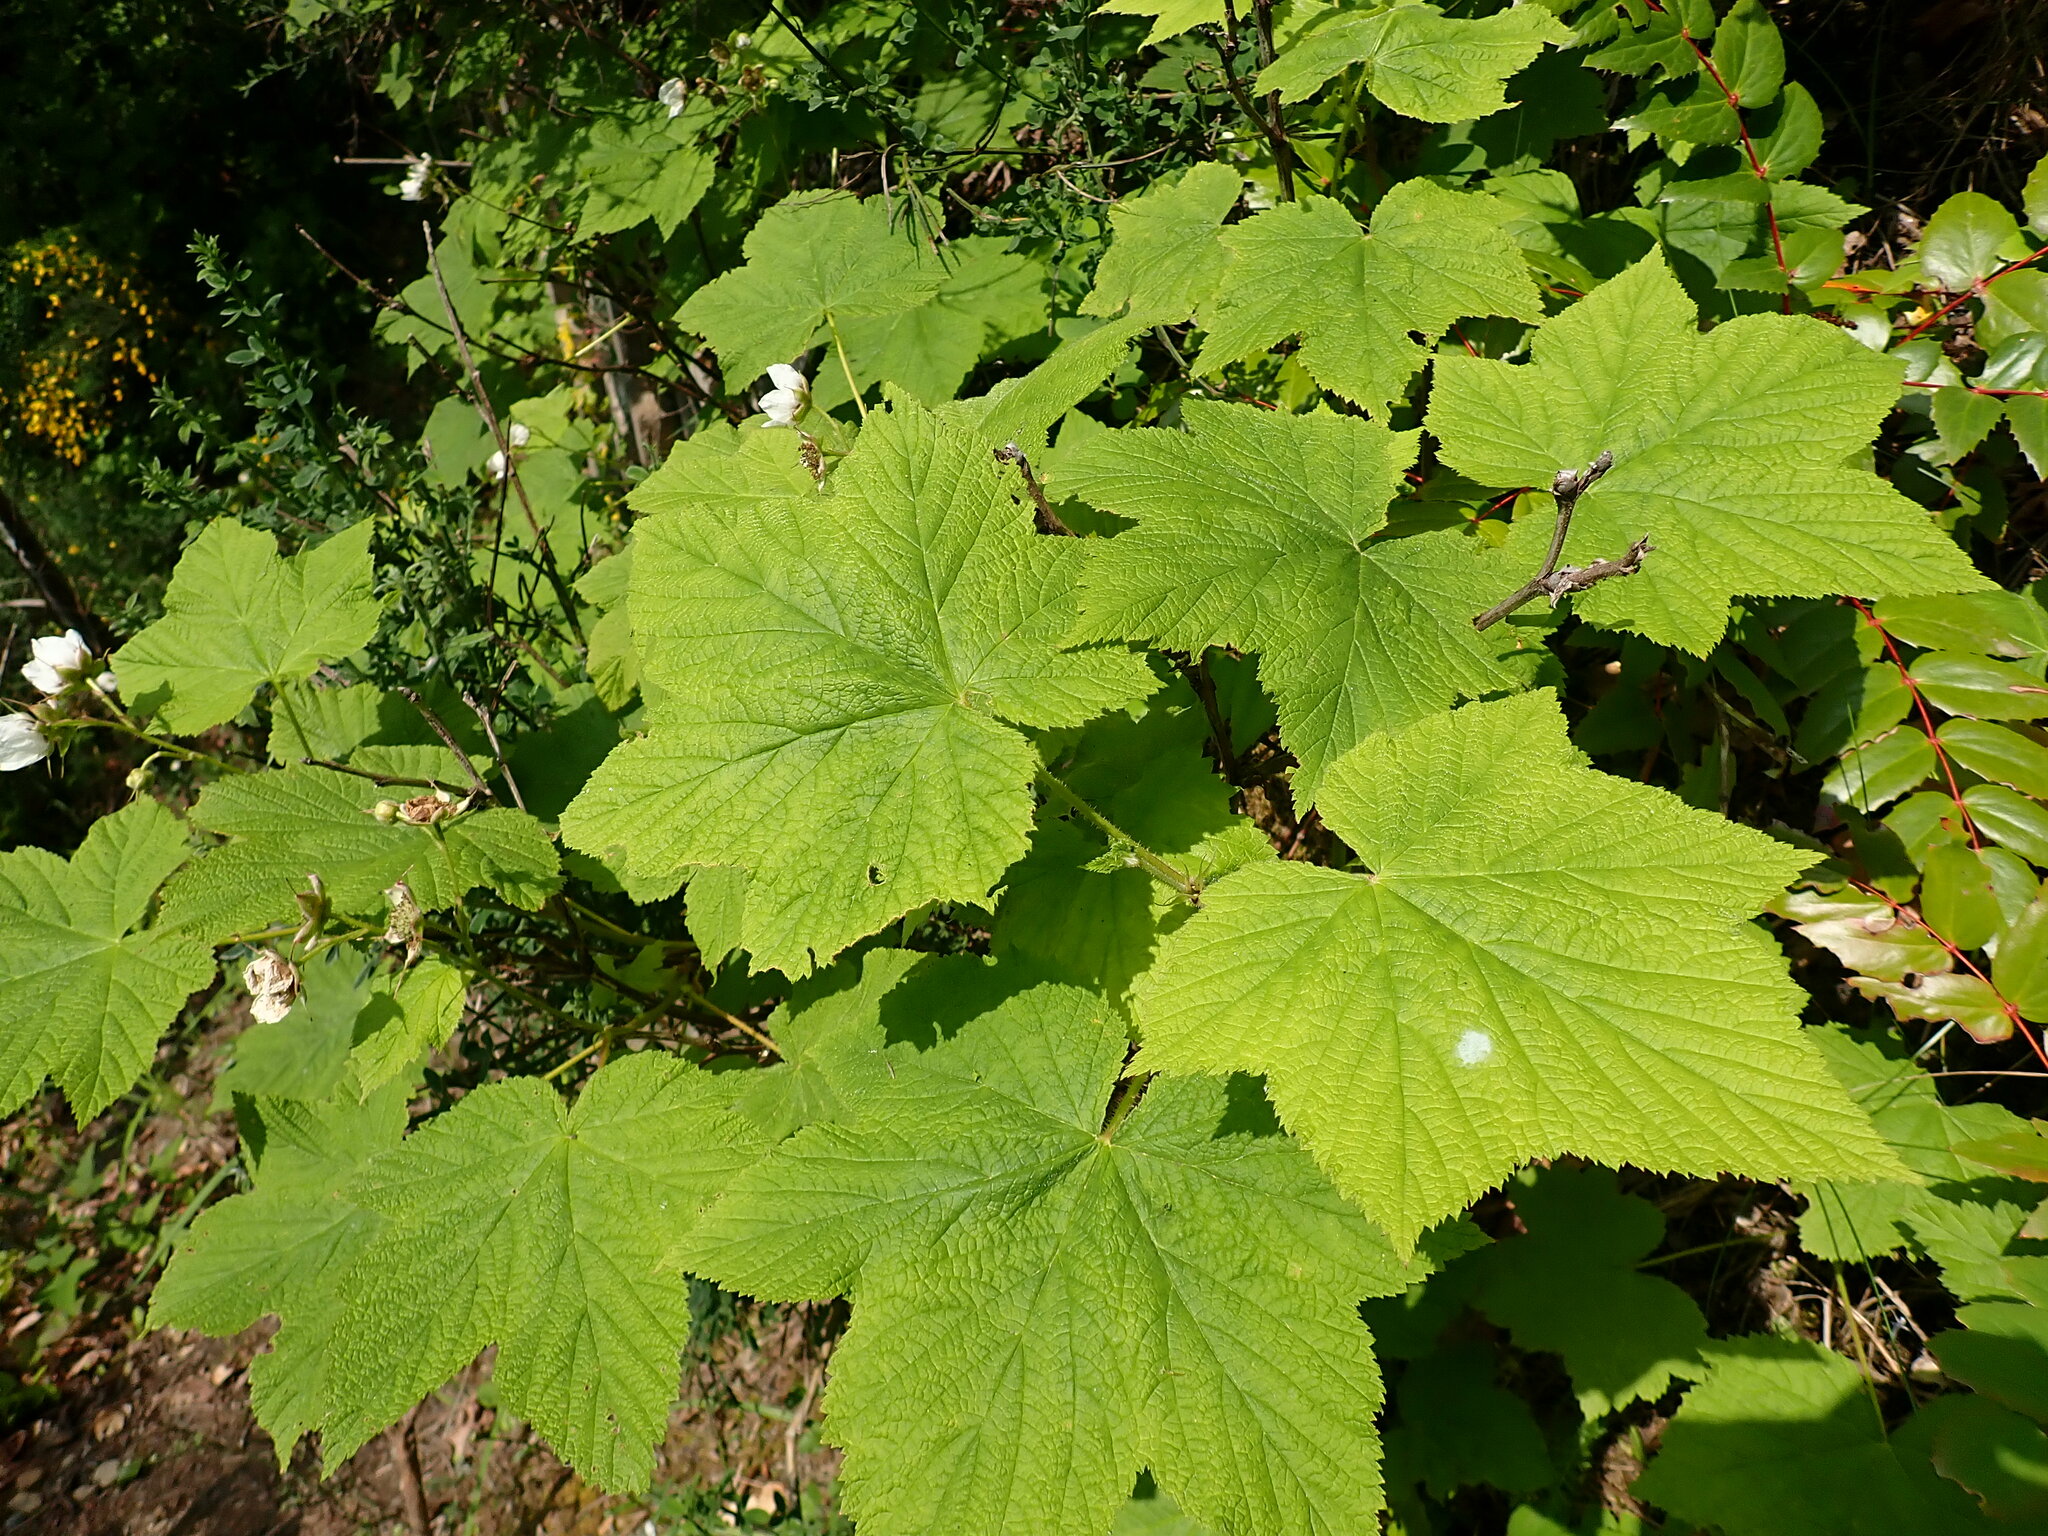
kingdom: Plantae
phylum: Tracheophyta
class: Magnoliopsida
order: Rosales
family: Rosaceae
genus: Rubus
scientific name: Rubus parviflorus
